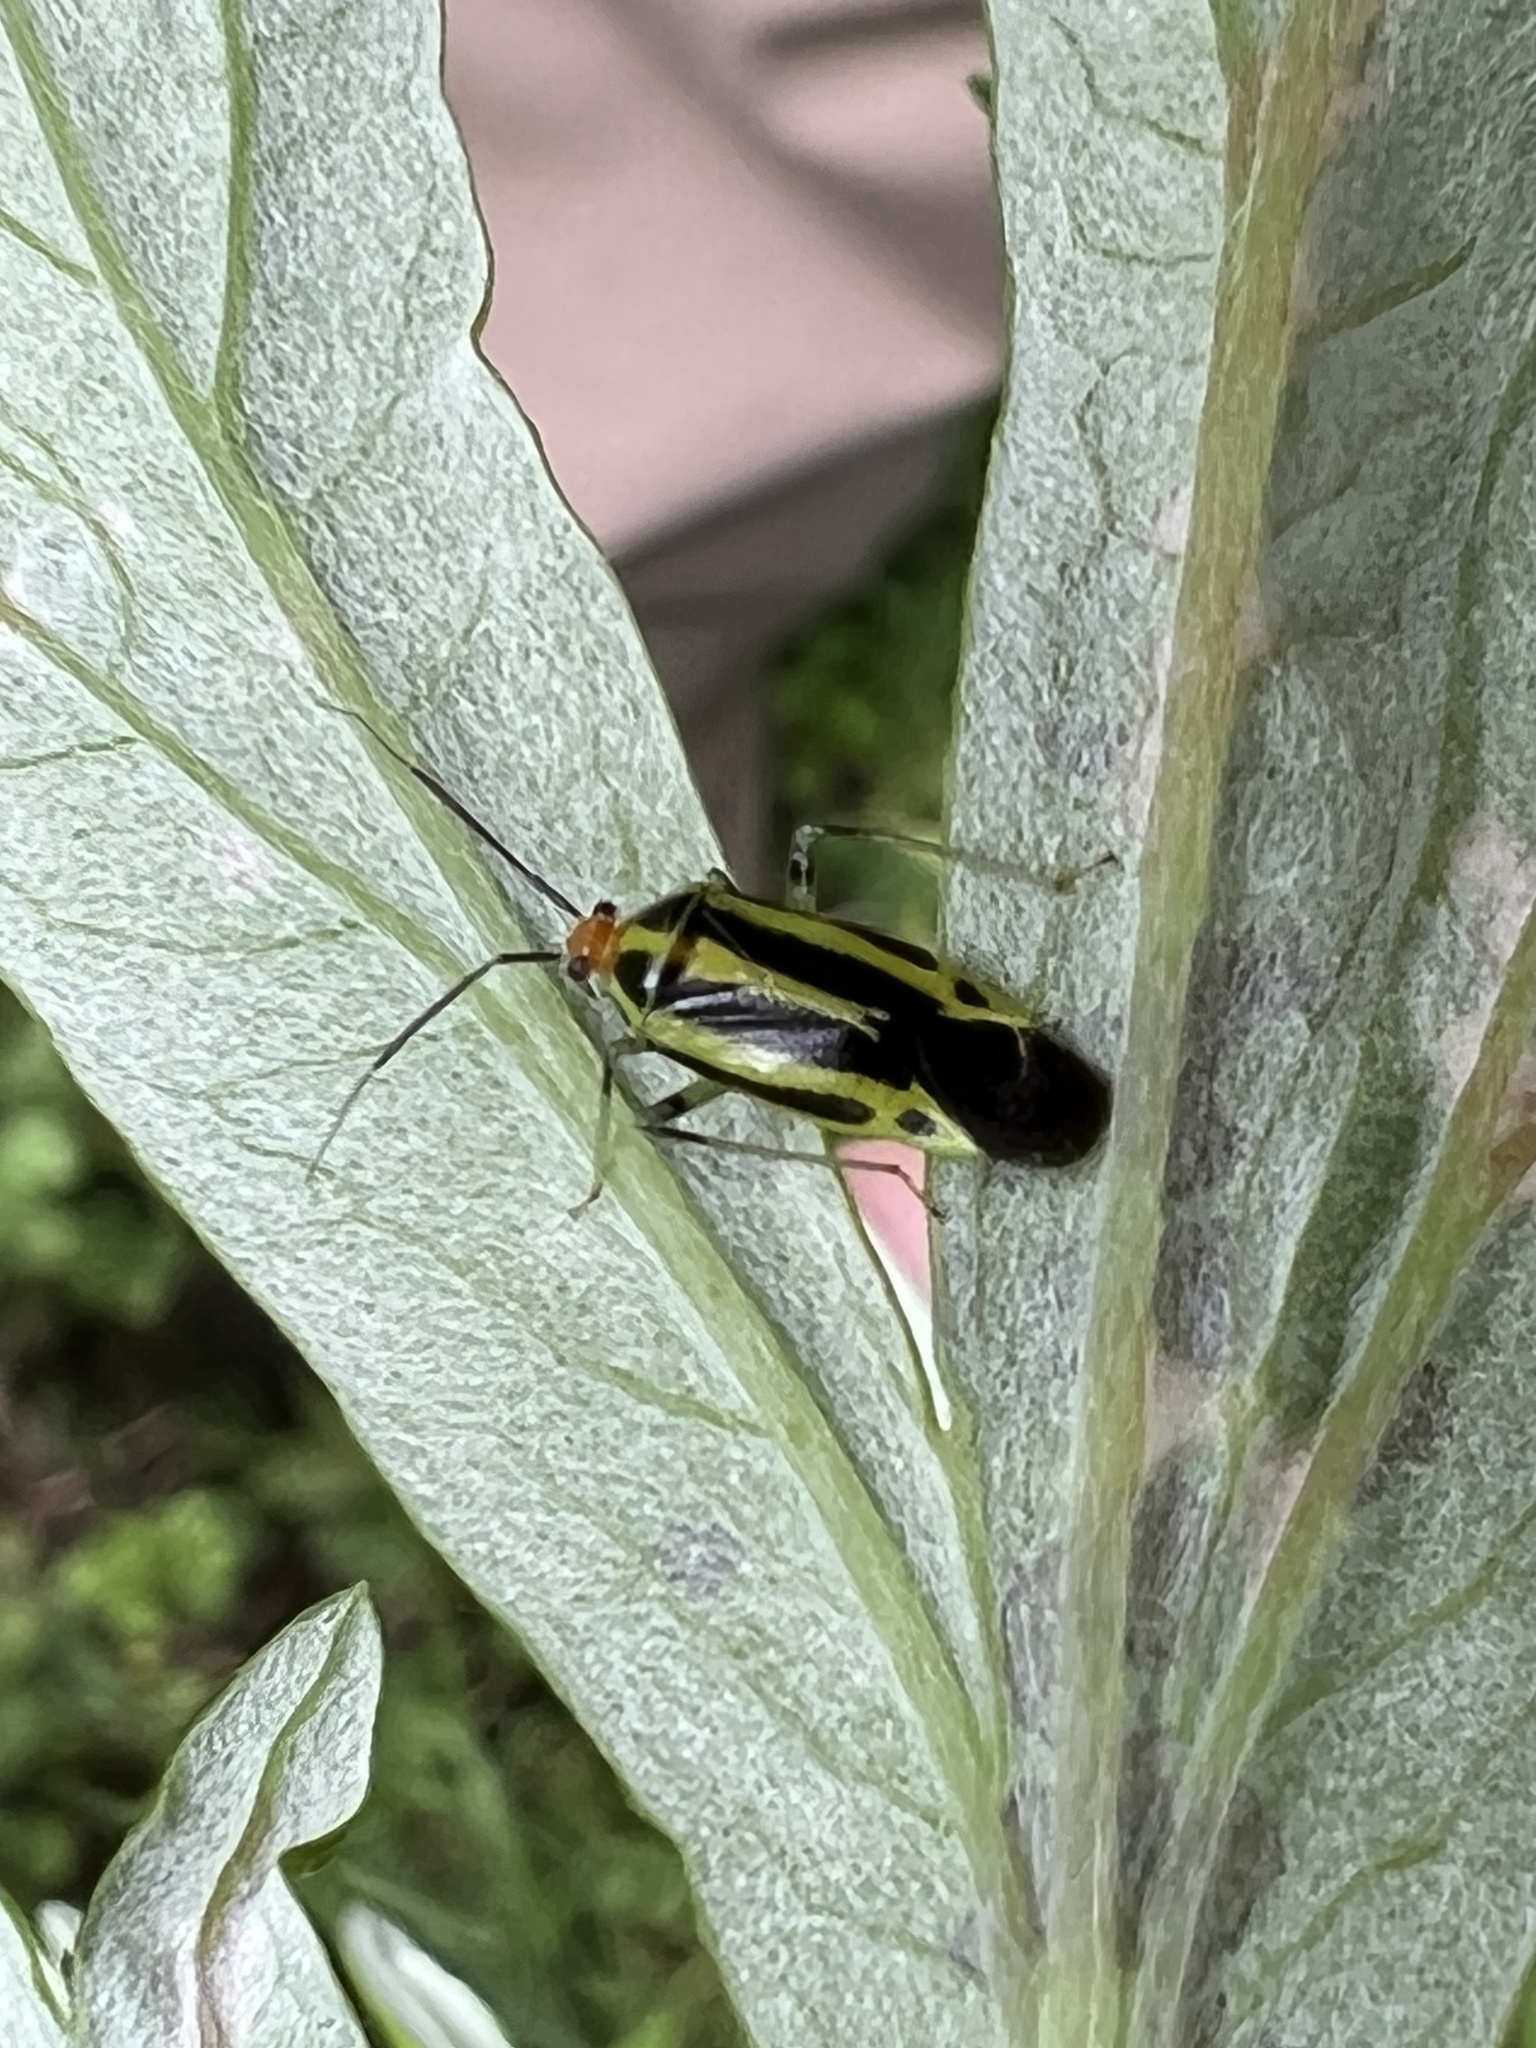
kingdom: Animalia
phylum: Arthropoda
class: Insecta
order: Hemiptera
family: Miridae
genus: Poecilocapsus
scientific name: Poecilocapsus lineatus
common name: Four-lined plant bug
